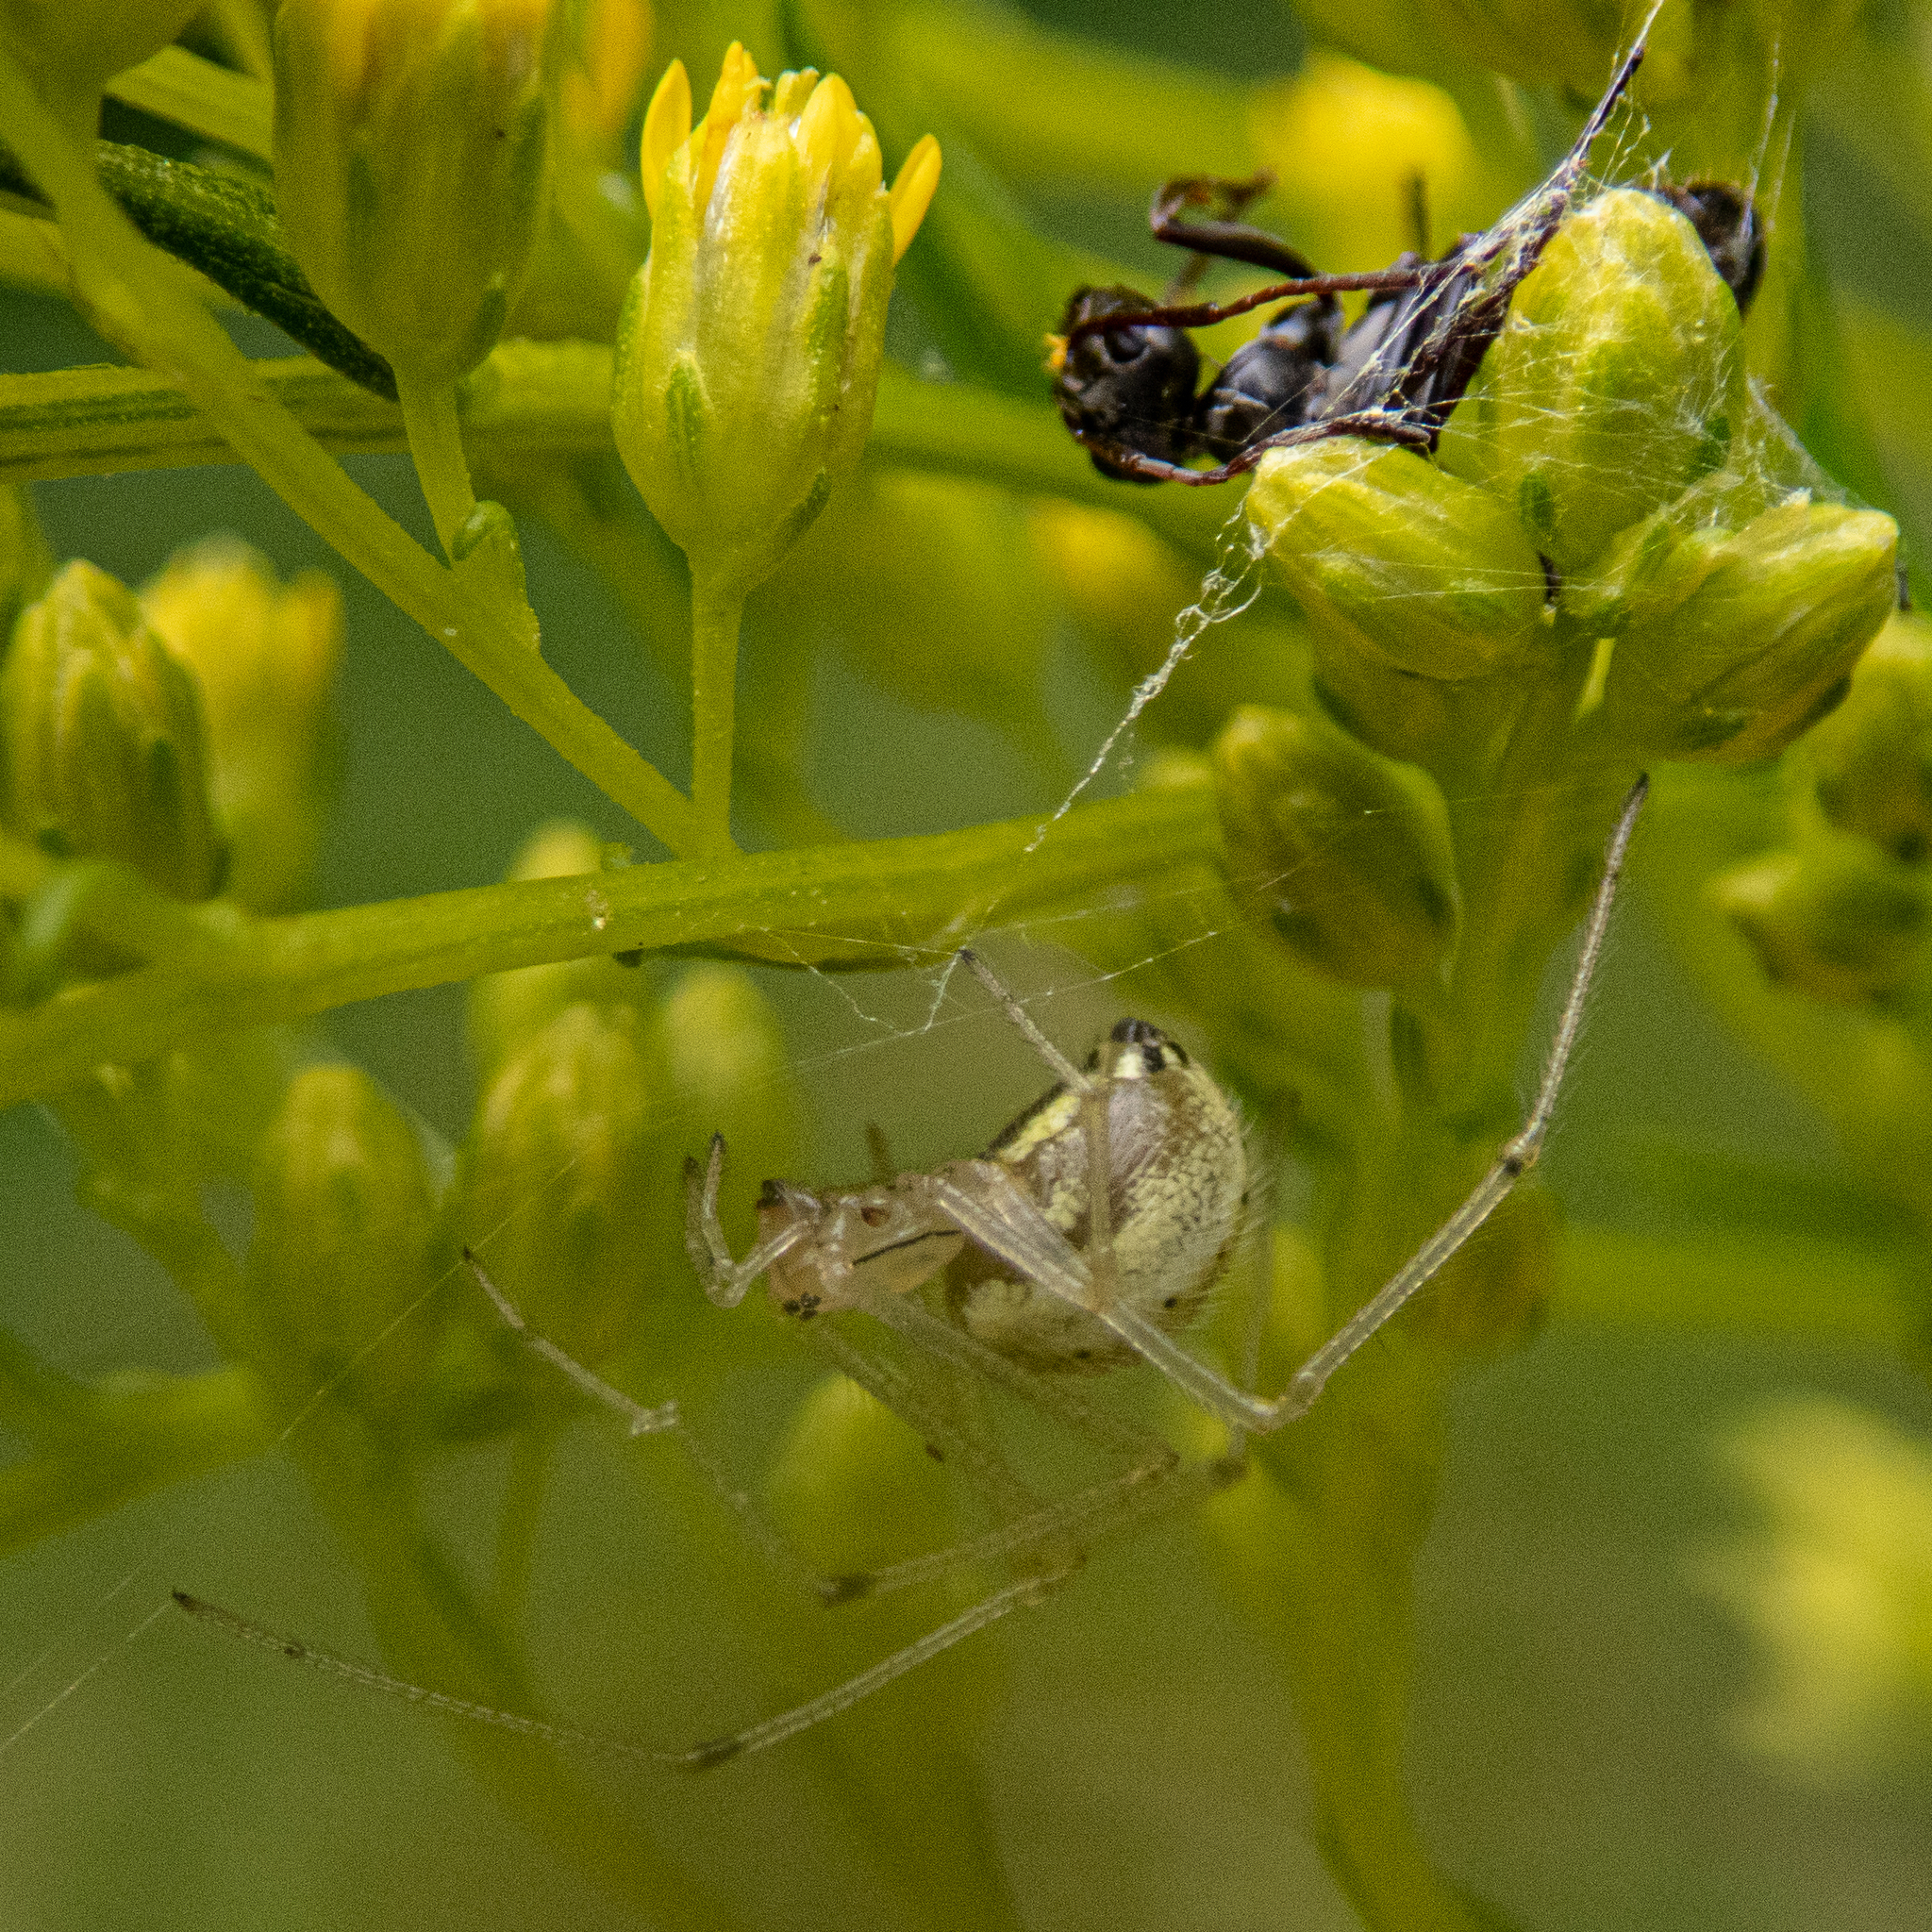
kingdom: Animalia
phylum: Arthropoda
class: Arachnida
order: Araneae
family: Theridiidae
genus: Enoplognatha
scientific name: Enoplognatha ovata
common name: Common candy-striped spider
